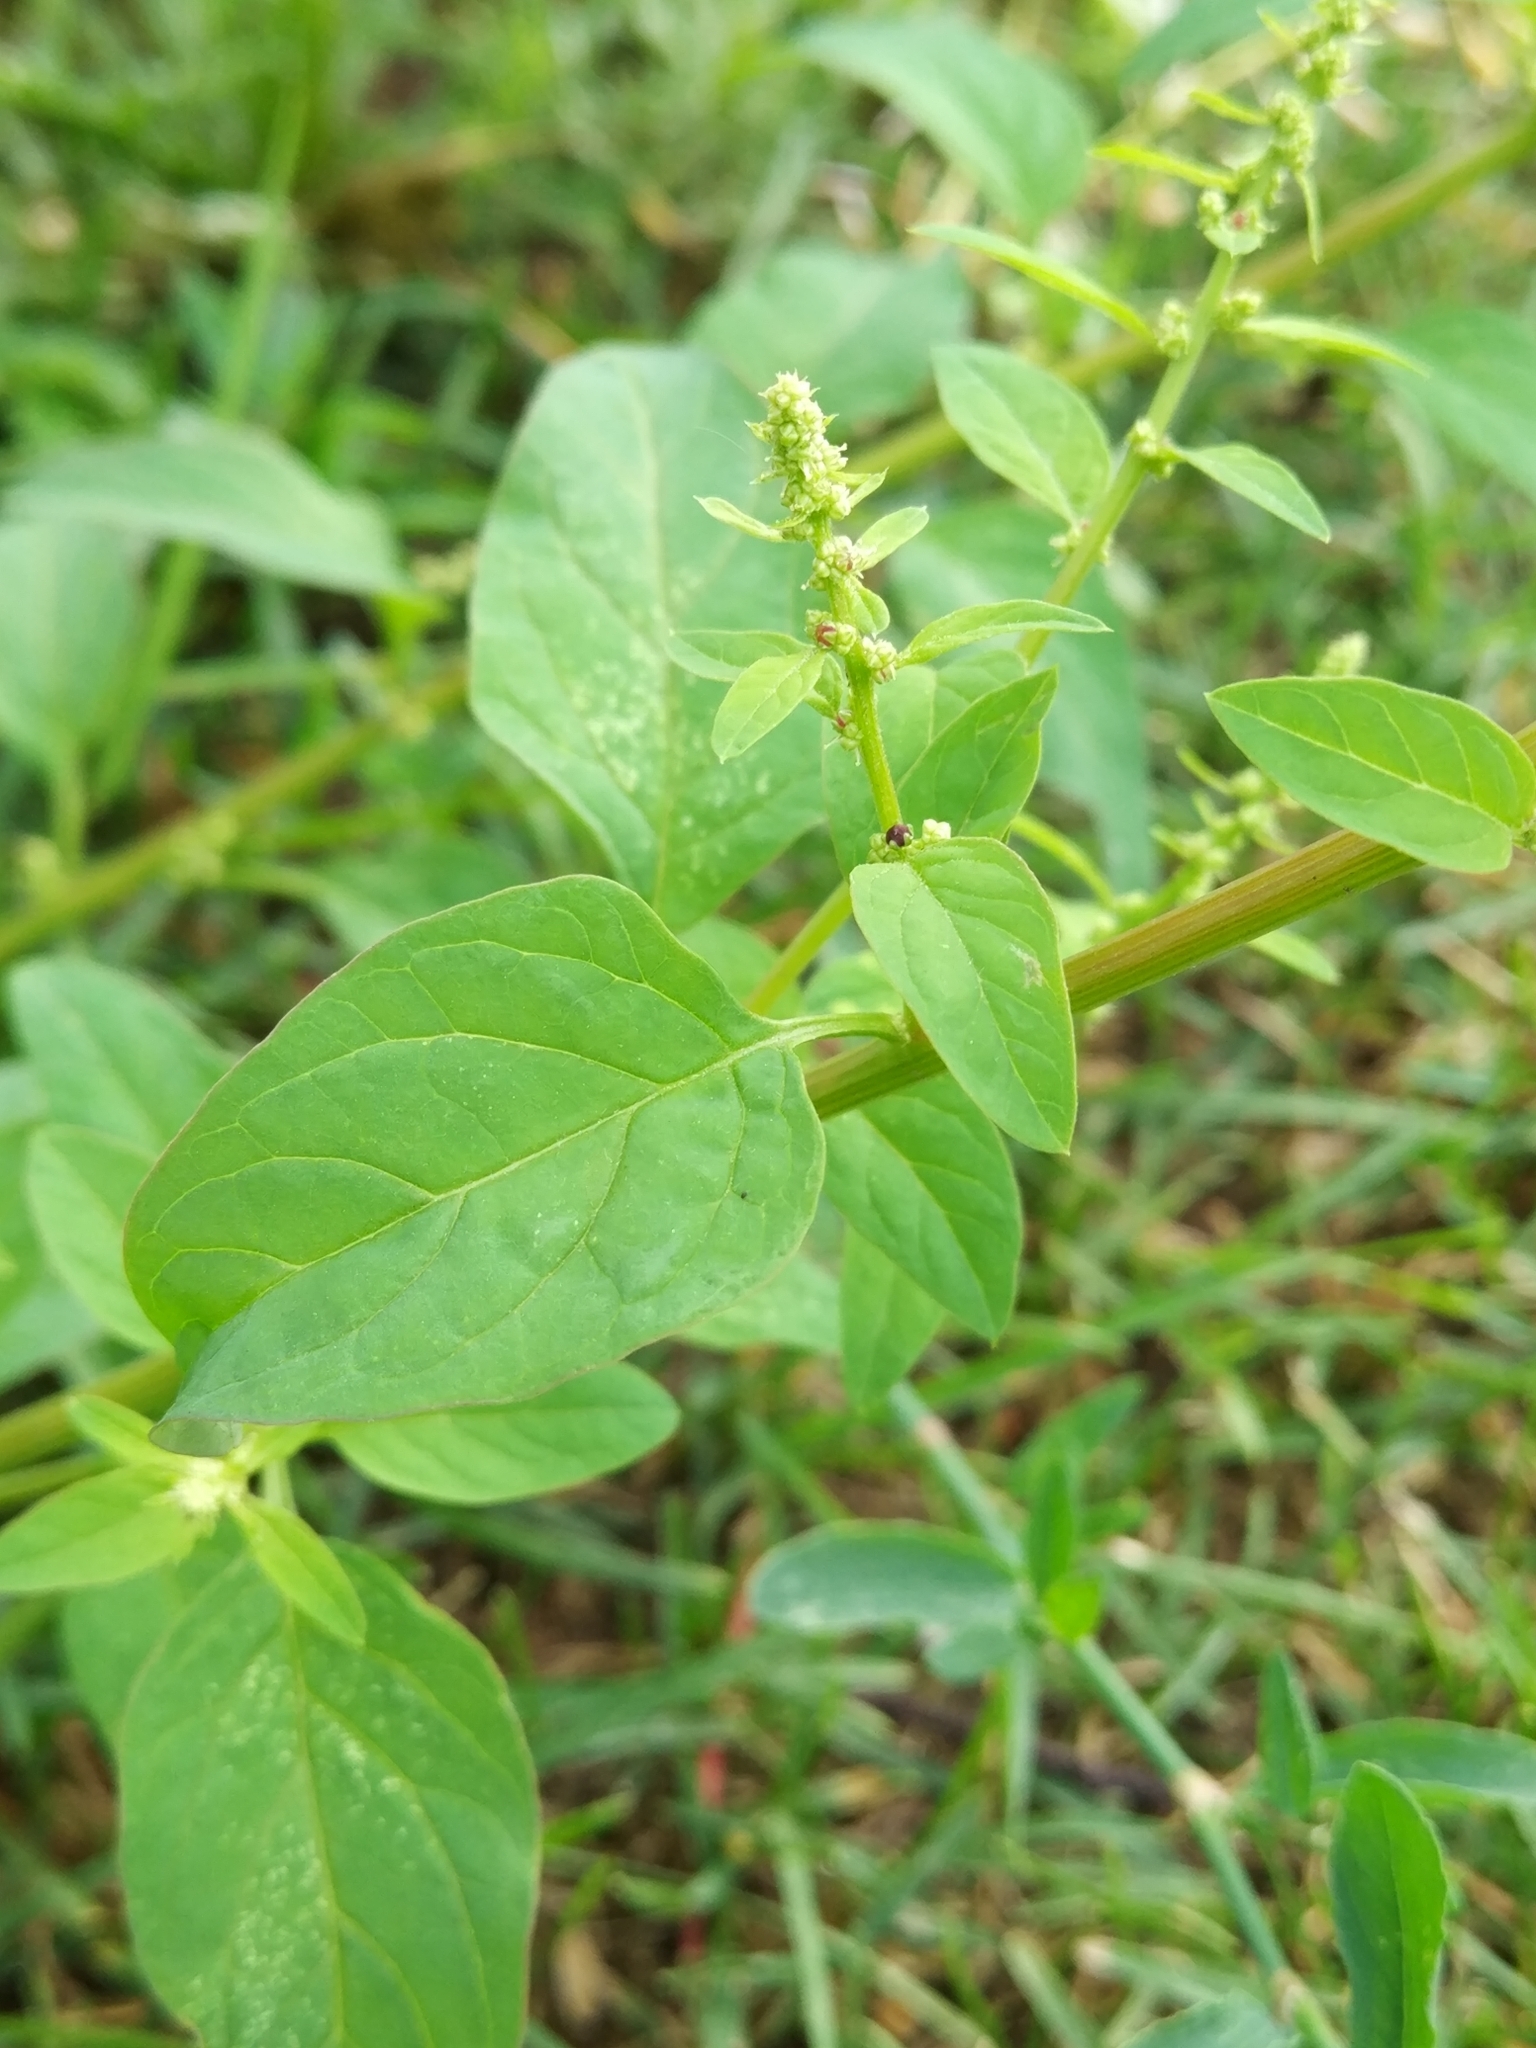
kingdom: Plantae
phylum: Tracheophyta
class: Magnoliopsida
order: Caryophyllales
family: Amaranthaceae
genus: Lipandra
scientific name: Lipandra polysperma
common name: Many-seed goosefoot
